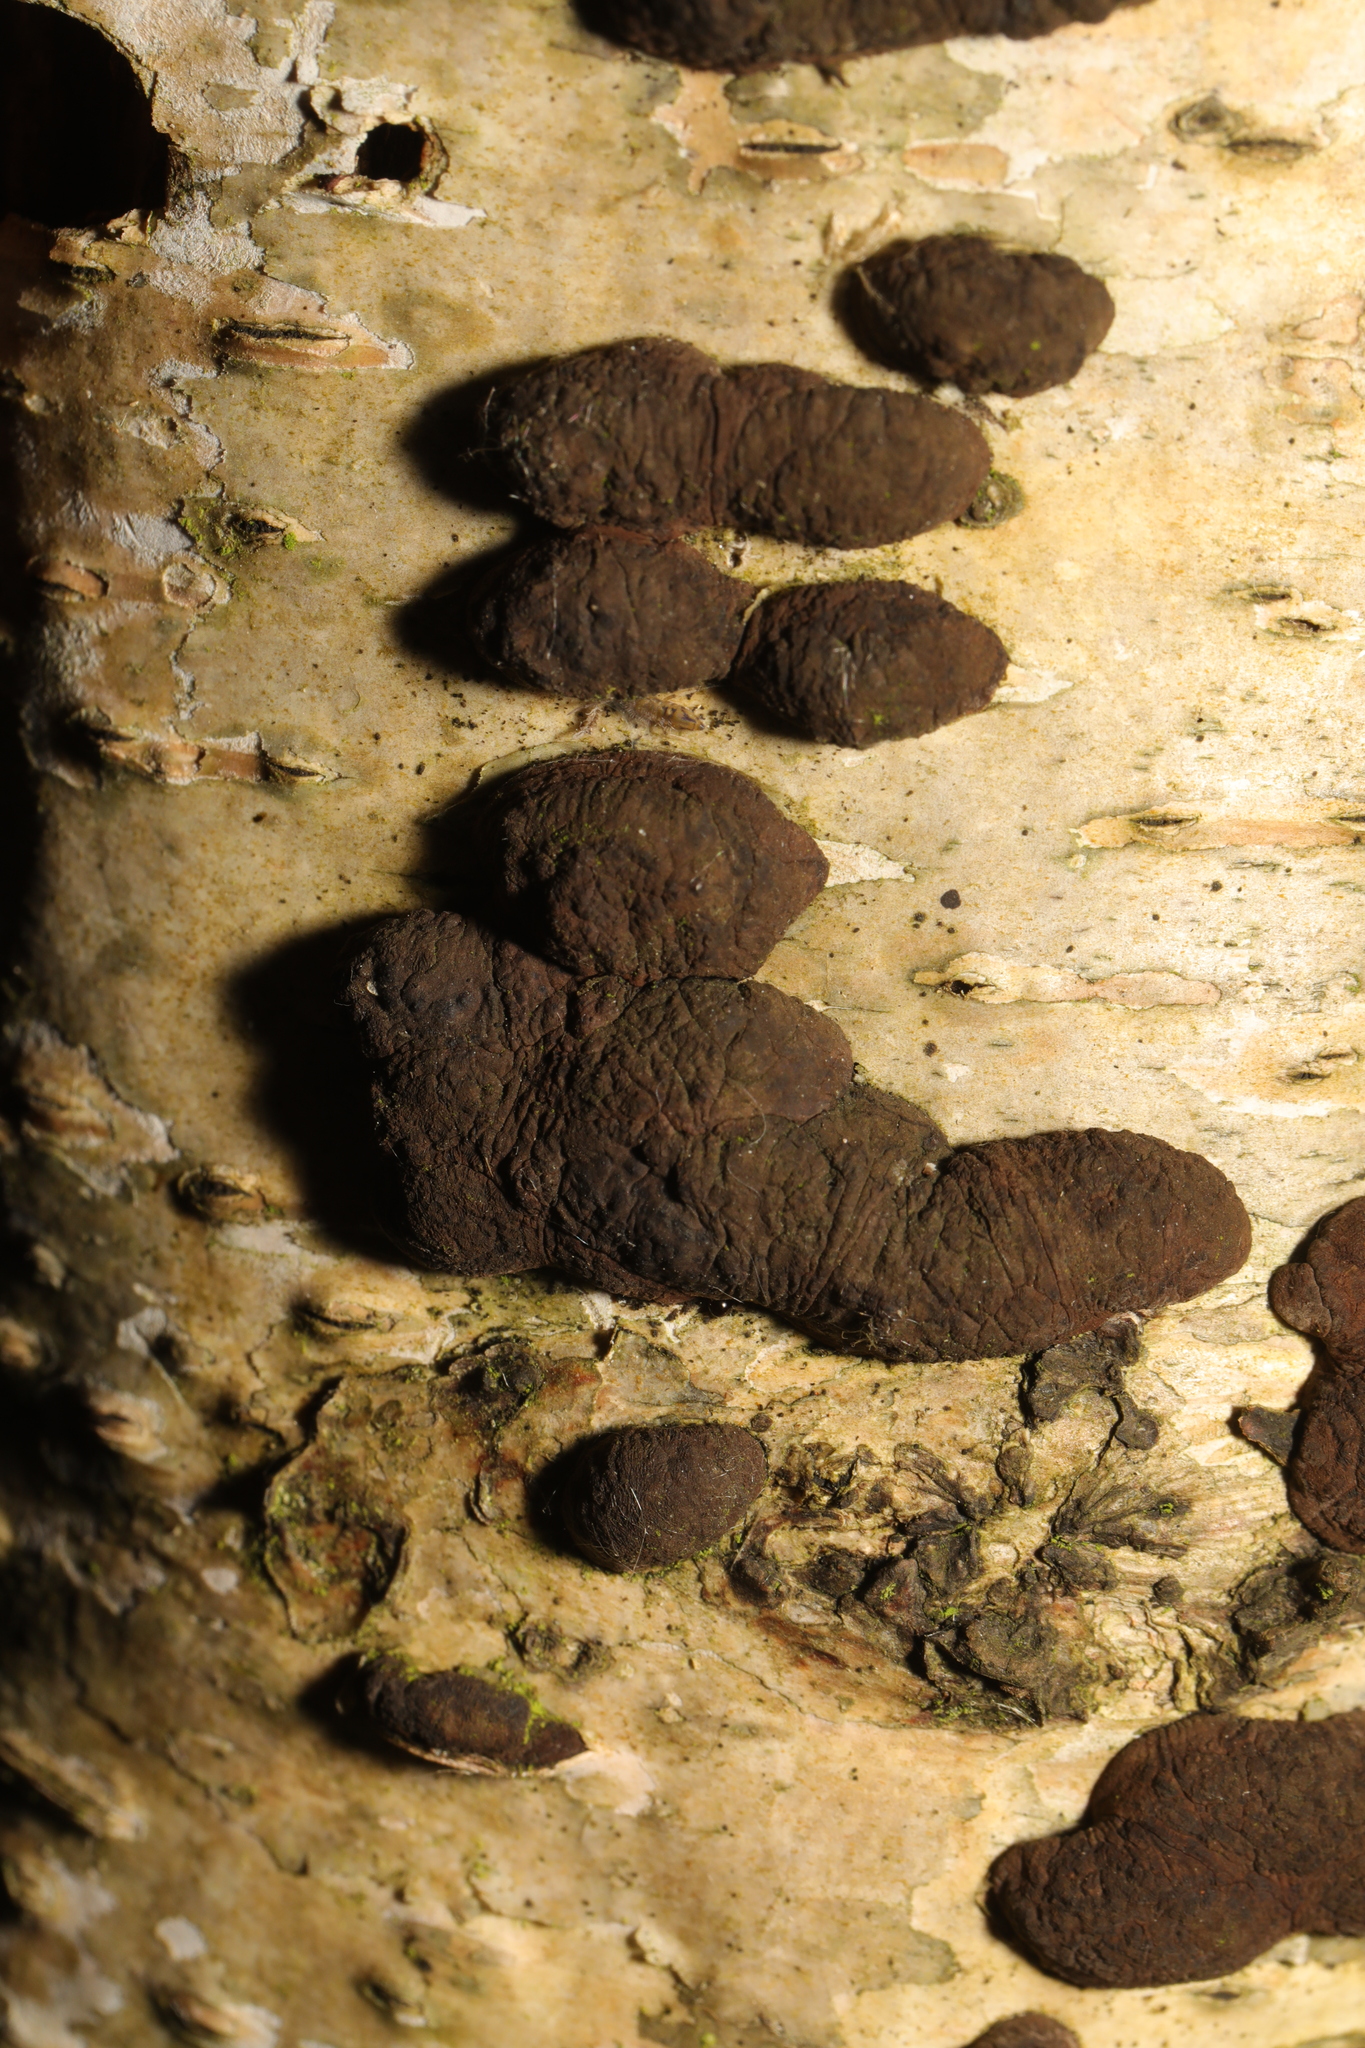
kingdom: Fungi
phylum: Ascomycota
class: Sordariomycetes
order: Xylariales
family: Hypoxylaceae
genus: Jackrogersella
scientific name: Jackrogersella multiformis
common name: Birch woodwart
